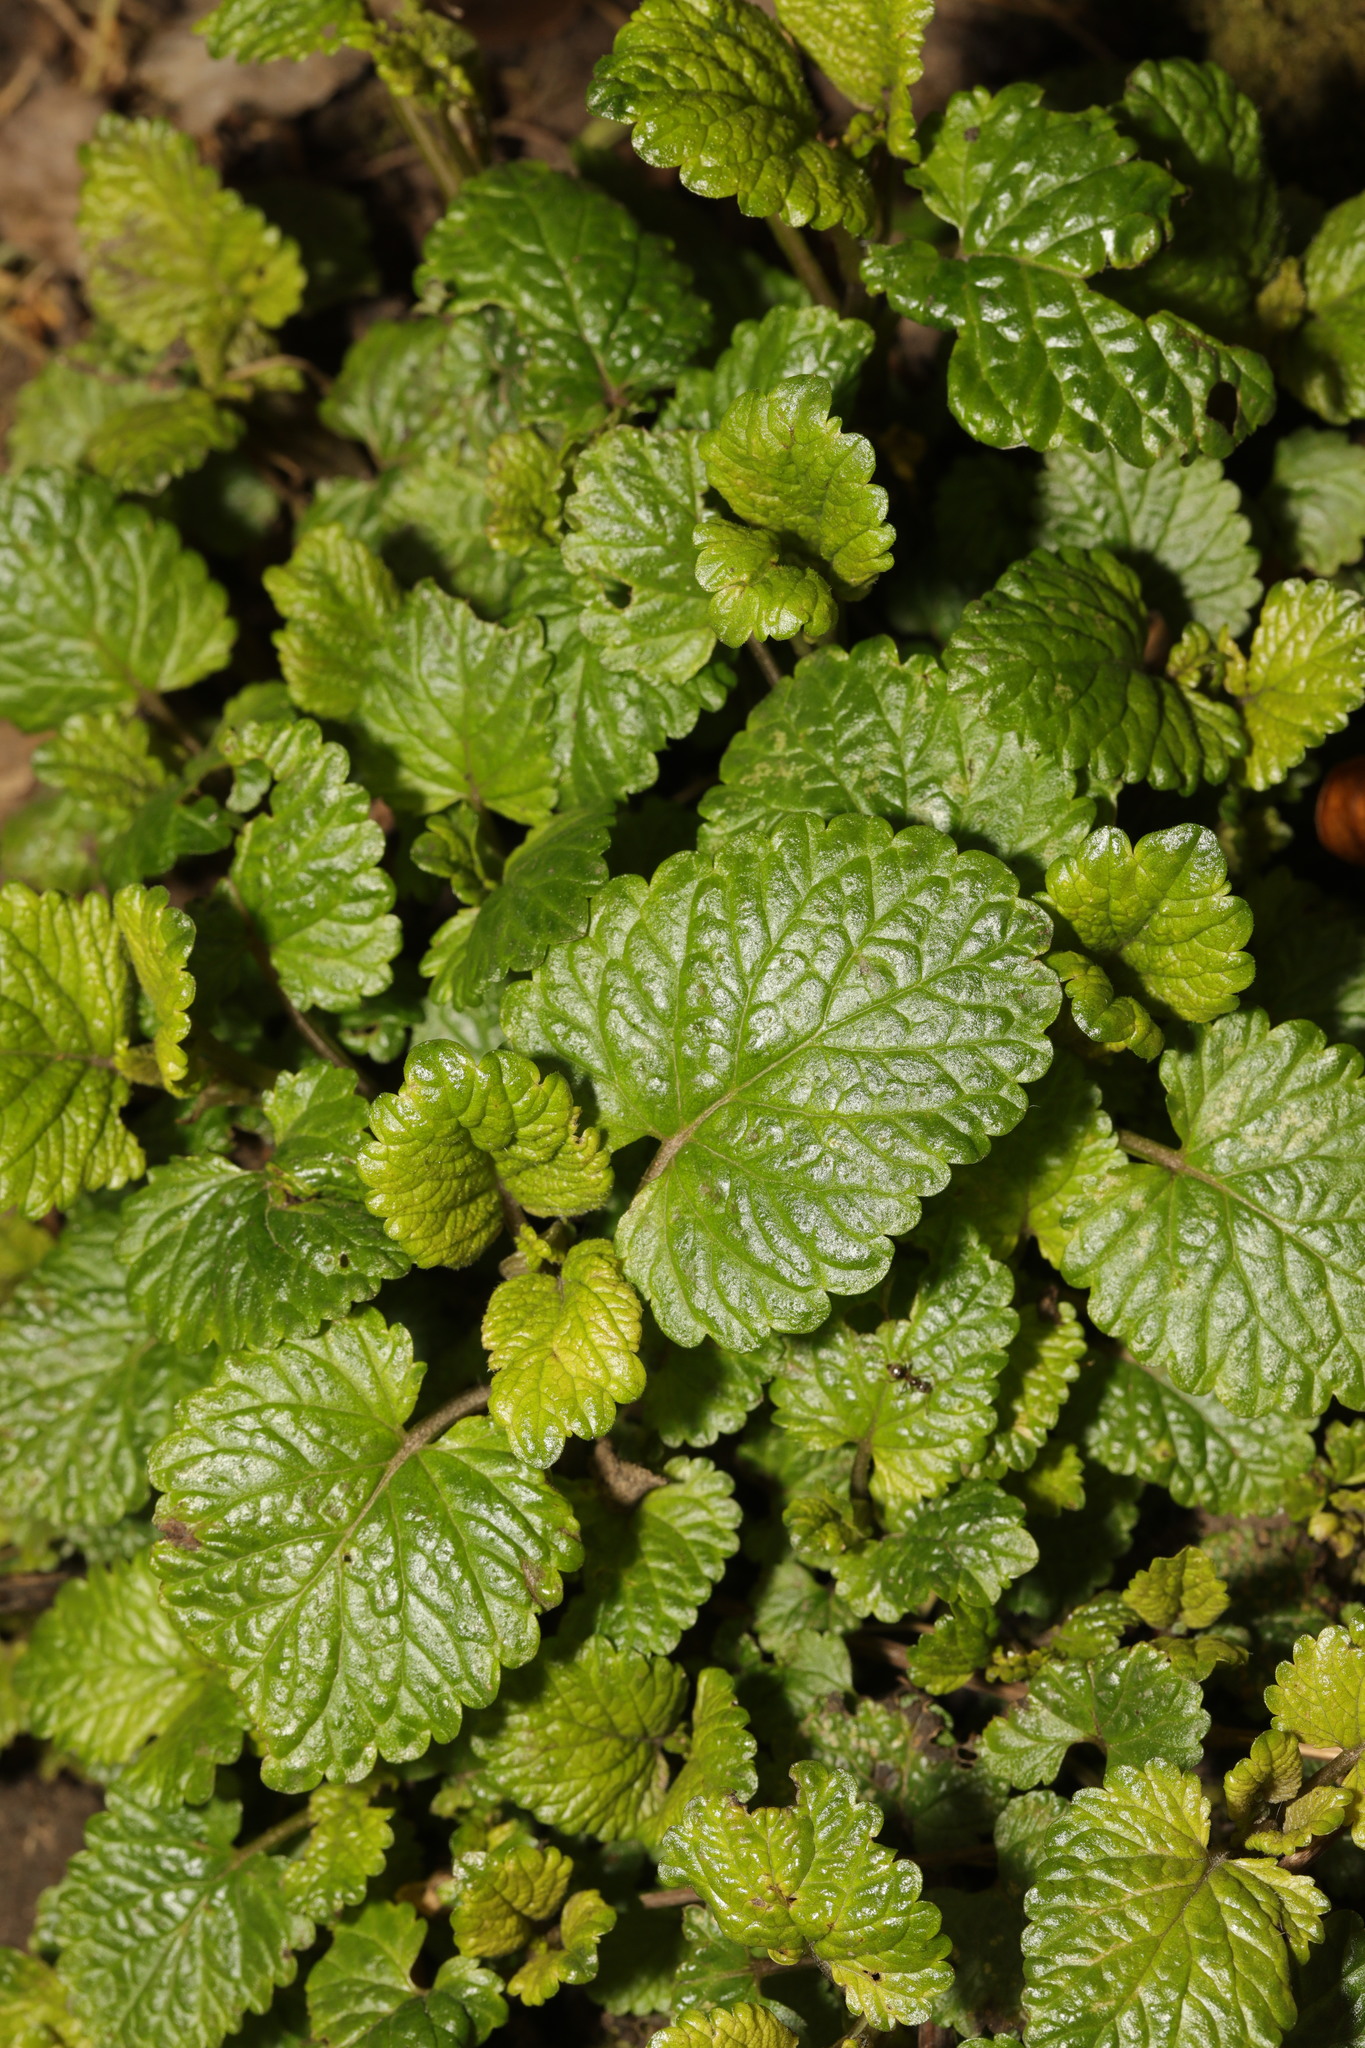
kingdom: Plantae
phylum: Tracheophyta
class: Magnoliopsida
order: Lamiales
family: Lamiaceae
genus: Melissa
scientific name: Melissa officinalis
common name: Balm
